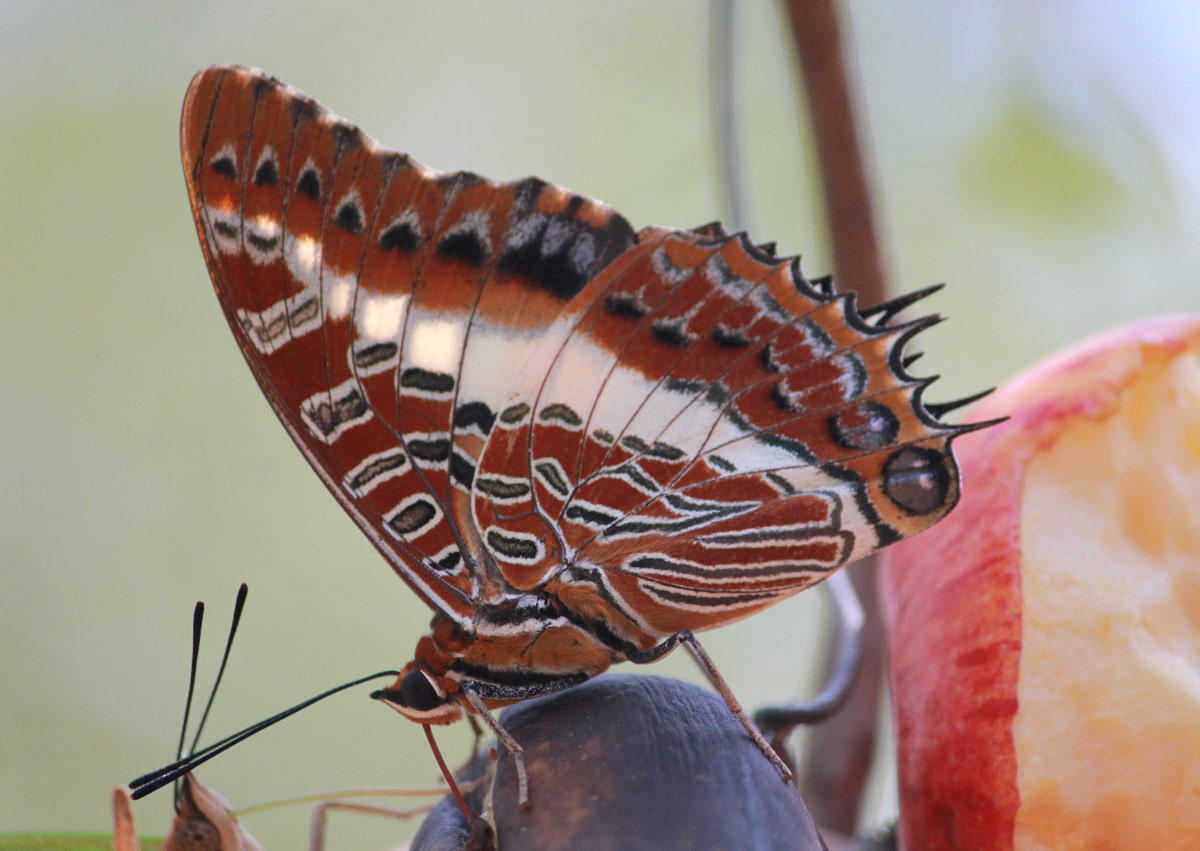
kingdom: Animalia
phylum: Arthropoda
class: Insecta
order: Lepidoptera
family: Nymphalidae
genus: Charaxes
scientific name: Charaxes brutus
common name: White-barred charaxes
